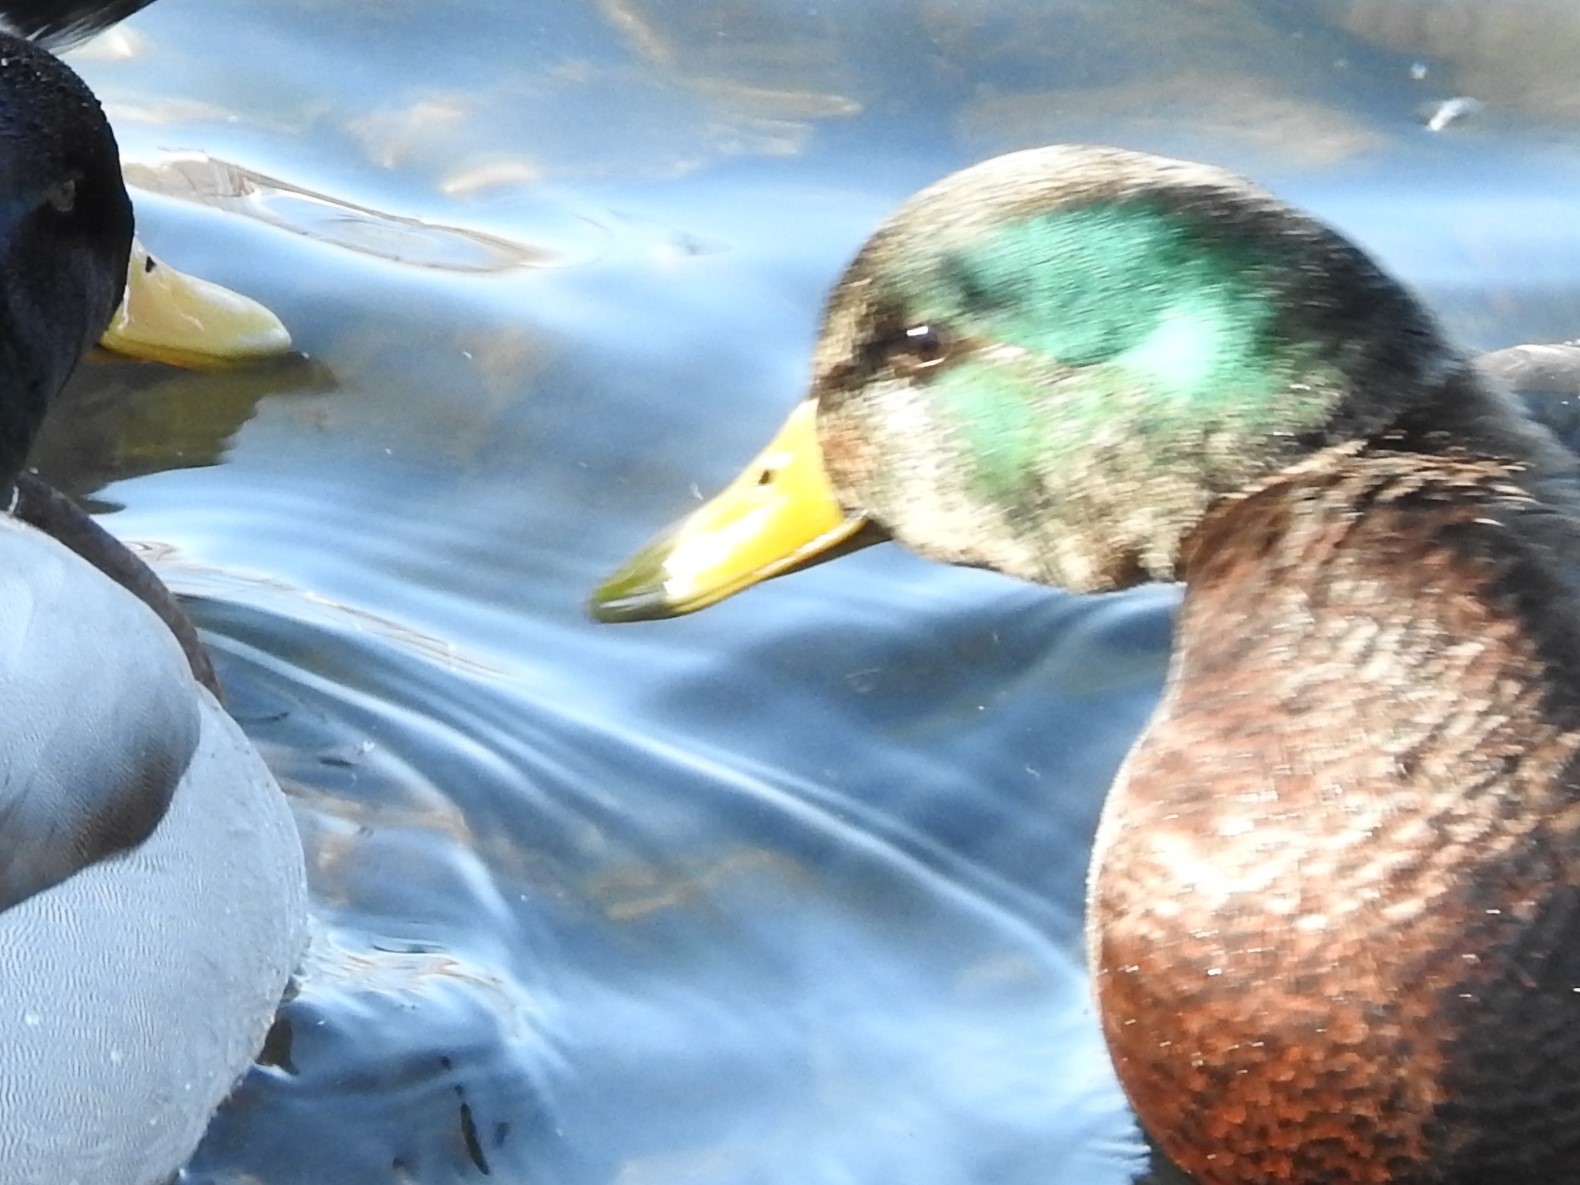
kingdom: Animalia
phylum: Chordata
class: Aves
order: Anseriformes
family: Anatidae
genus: Anas
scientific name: Anas
